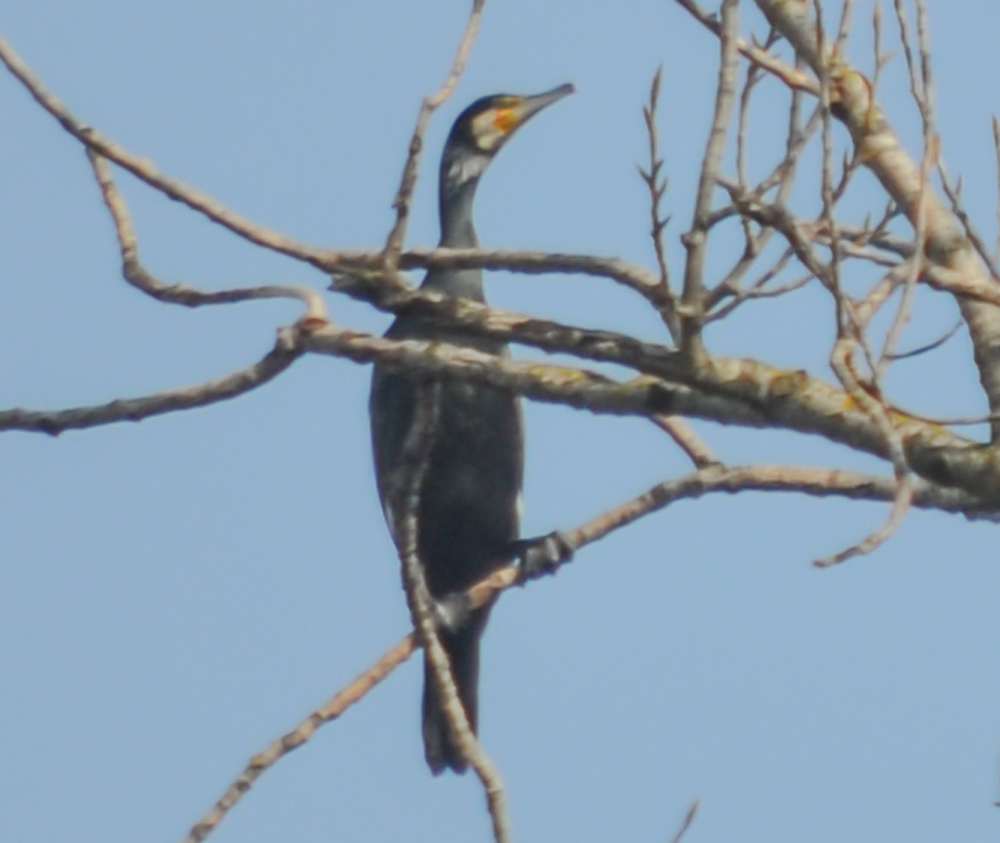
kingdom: Animalia
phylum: Chordata
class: Aves
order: Suliformes
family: Phalacrocoracidae
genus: Phalacrocorax
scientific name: Phalacrocorax carbo
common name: Great cormorant
